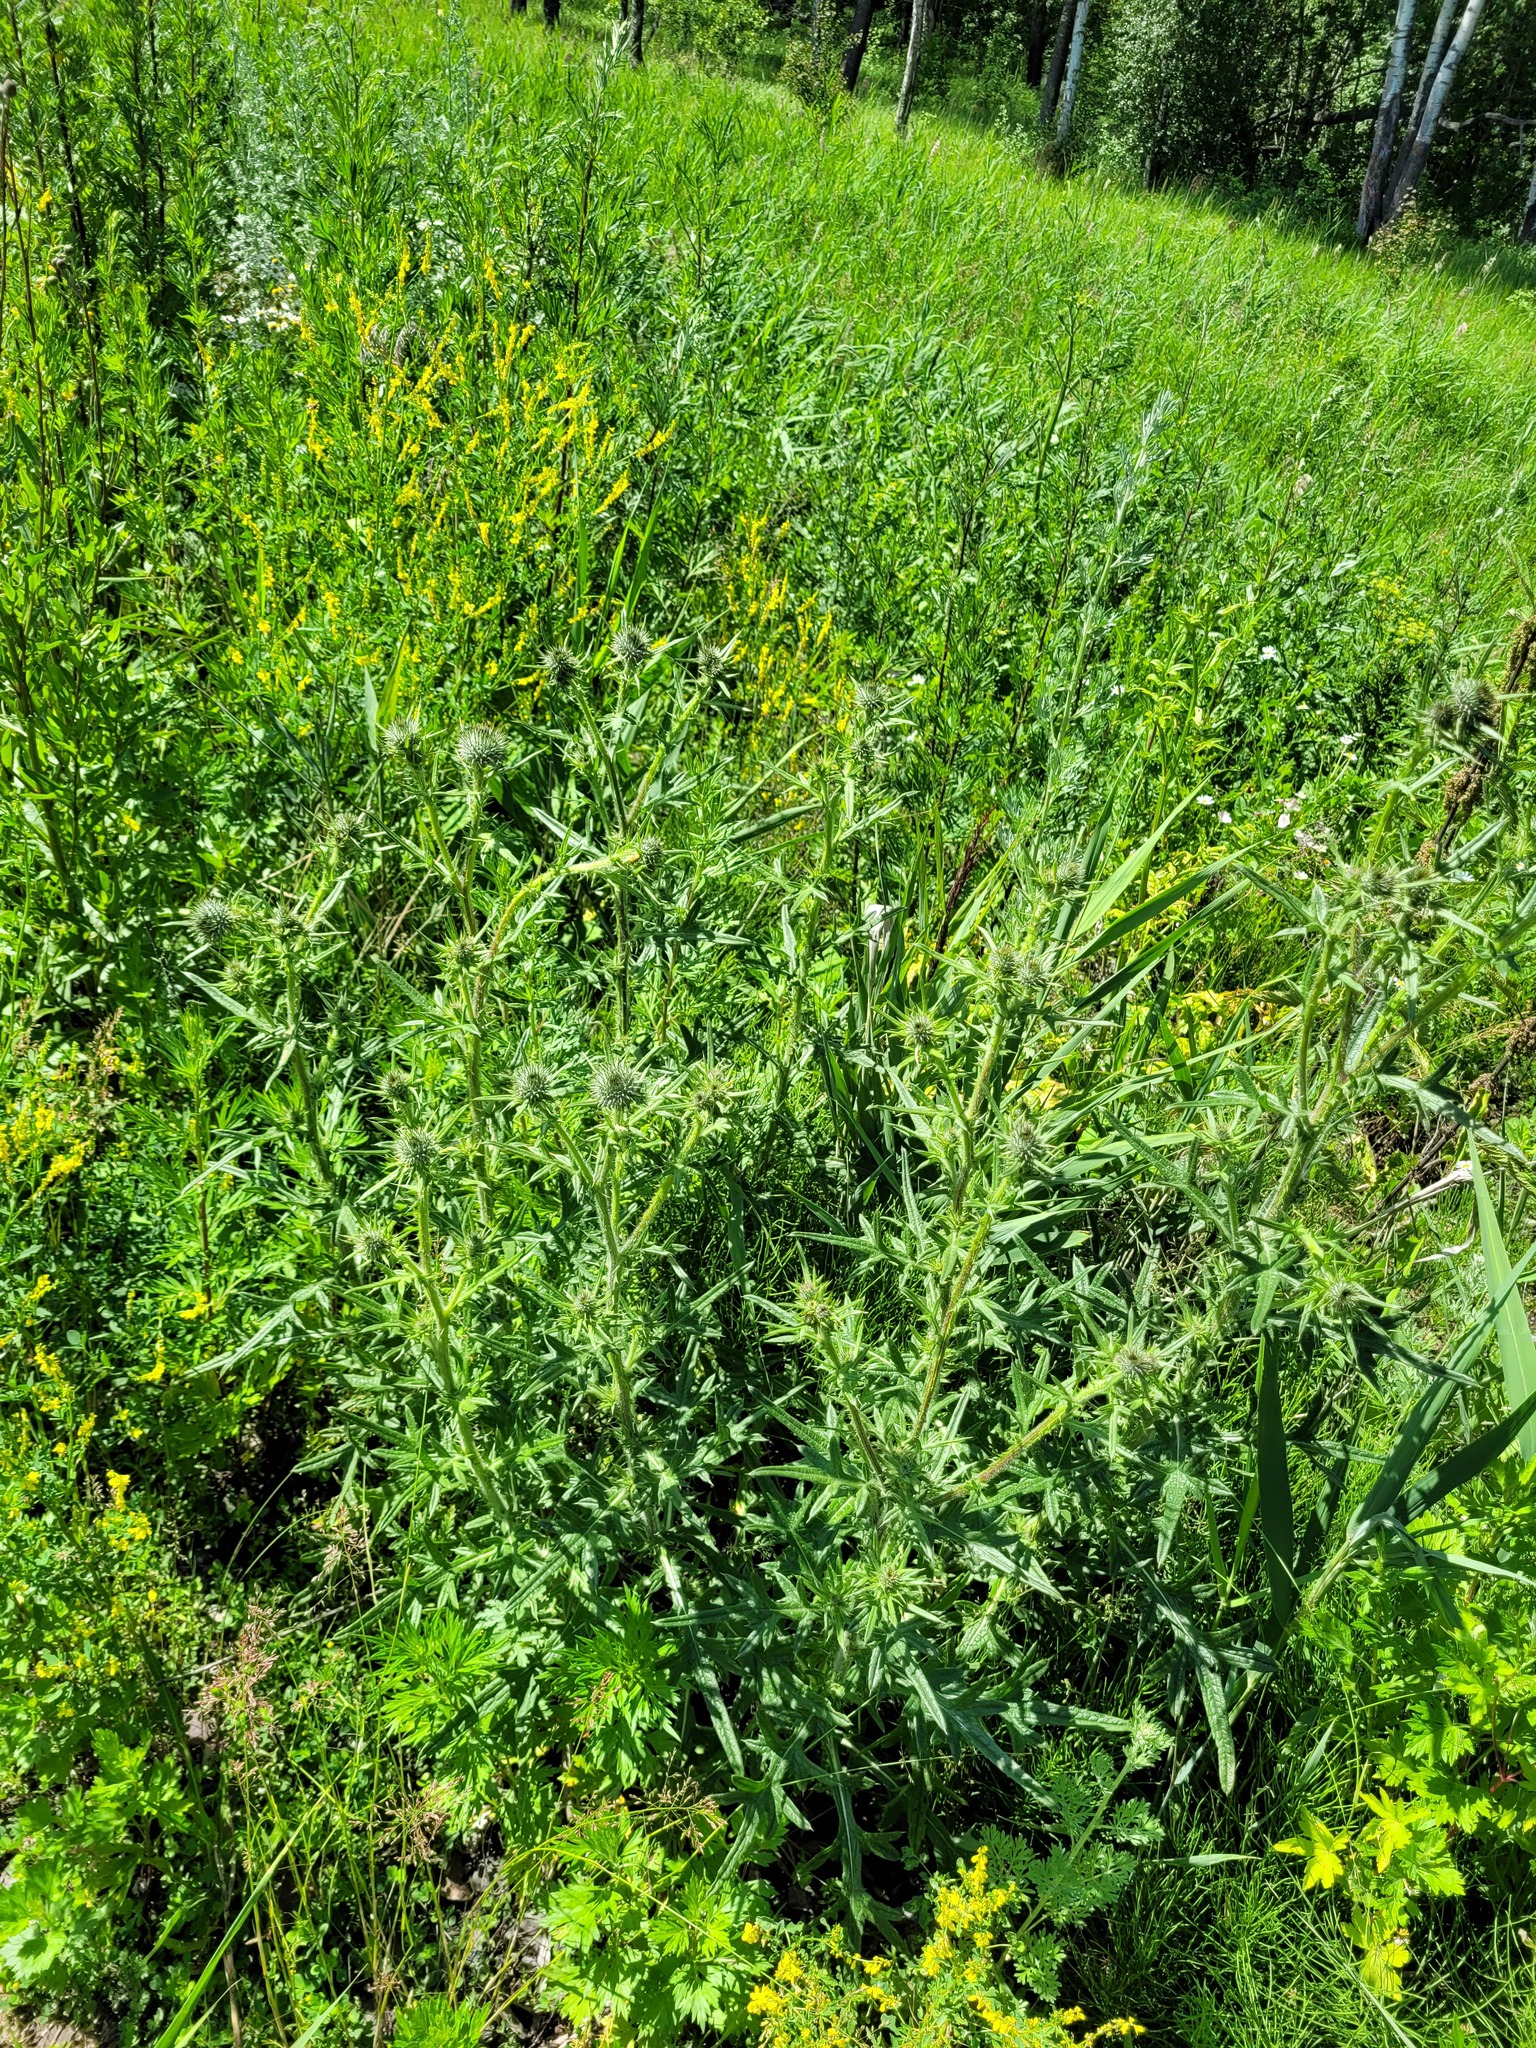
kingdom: Plantae
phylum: Tracheophyta
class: Magnoliopsida
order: Asterales
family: Asteraceae
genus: Cirsium
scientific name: Cirsium vulgare
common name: Bull thistle
